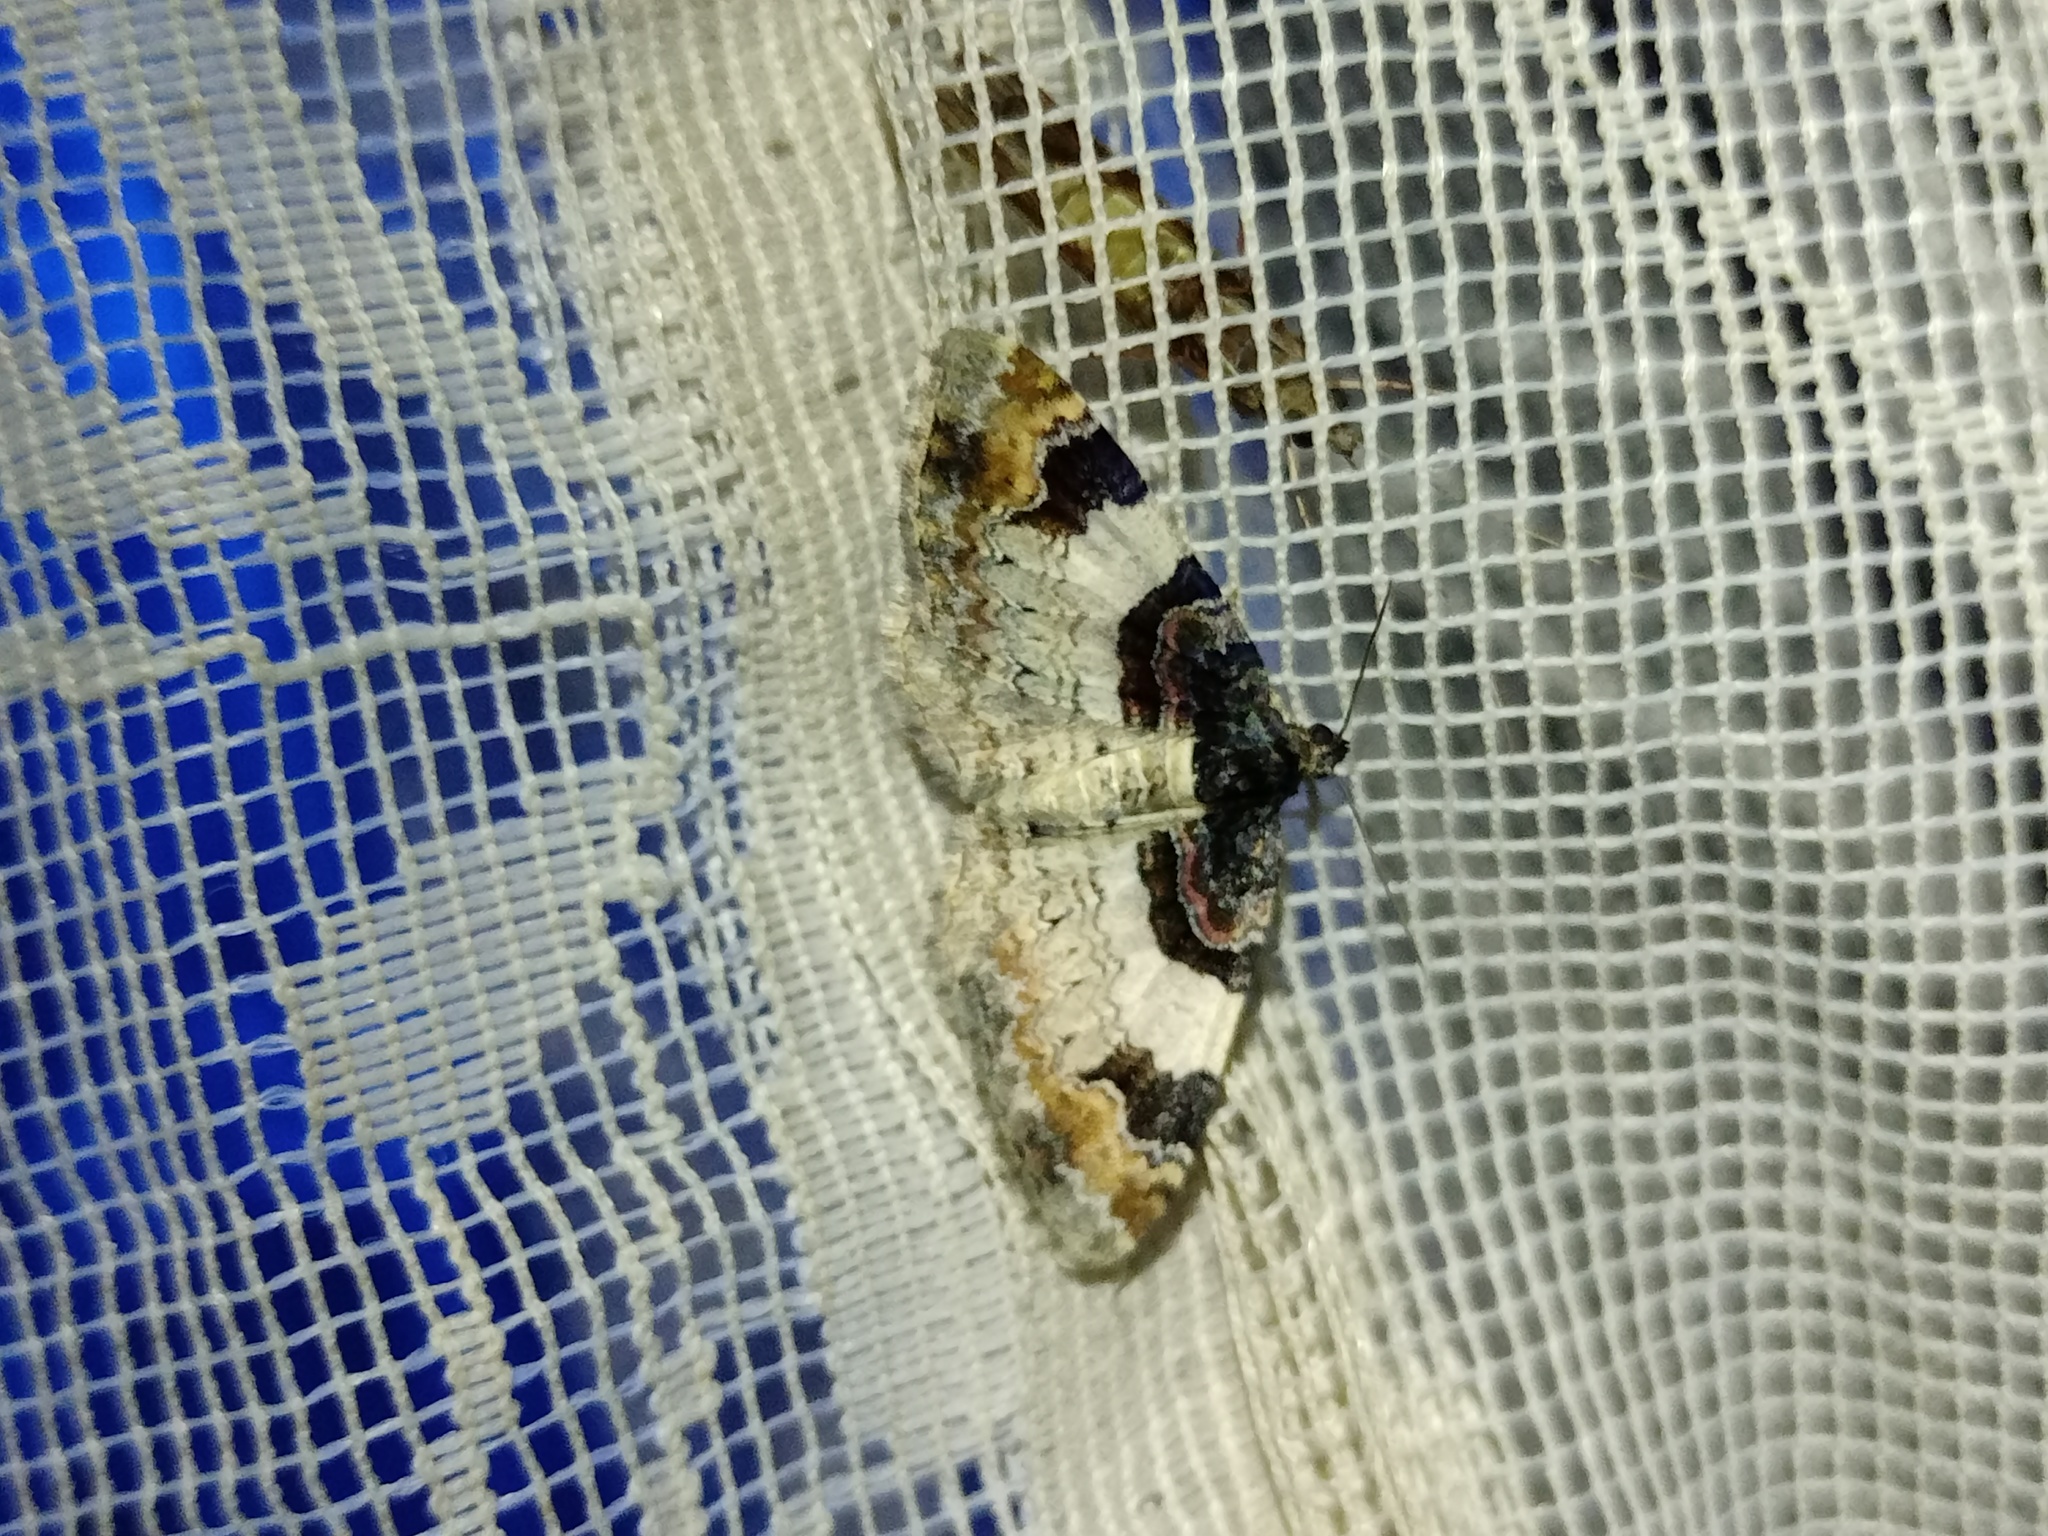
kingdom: Animalia
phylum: Arthropoda
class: Insecta
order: Lepidoptera
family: Geometridae
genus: Catarhoe
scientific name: Catarhoe cuculata
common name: Royal mantle
